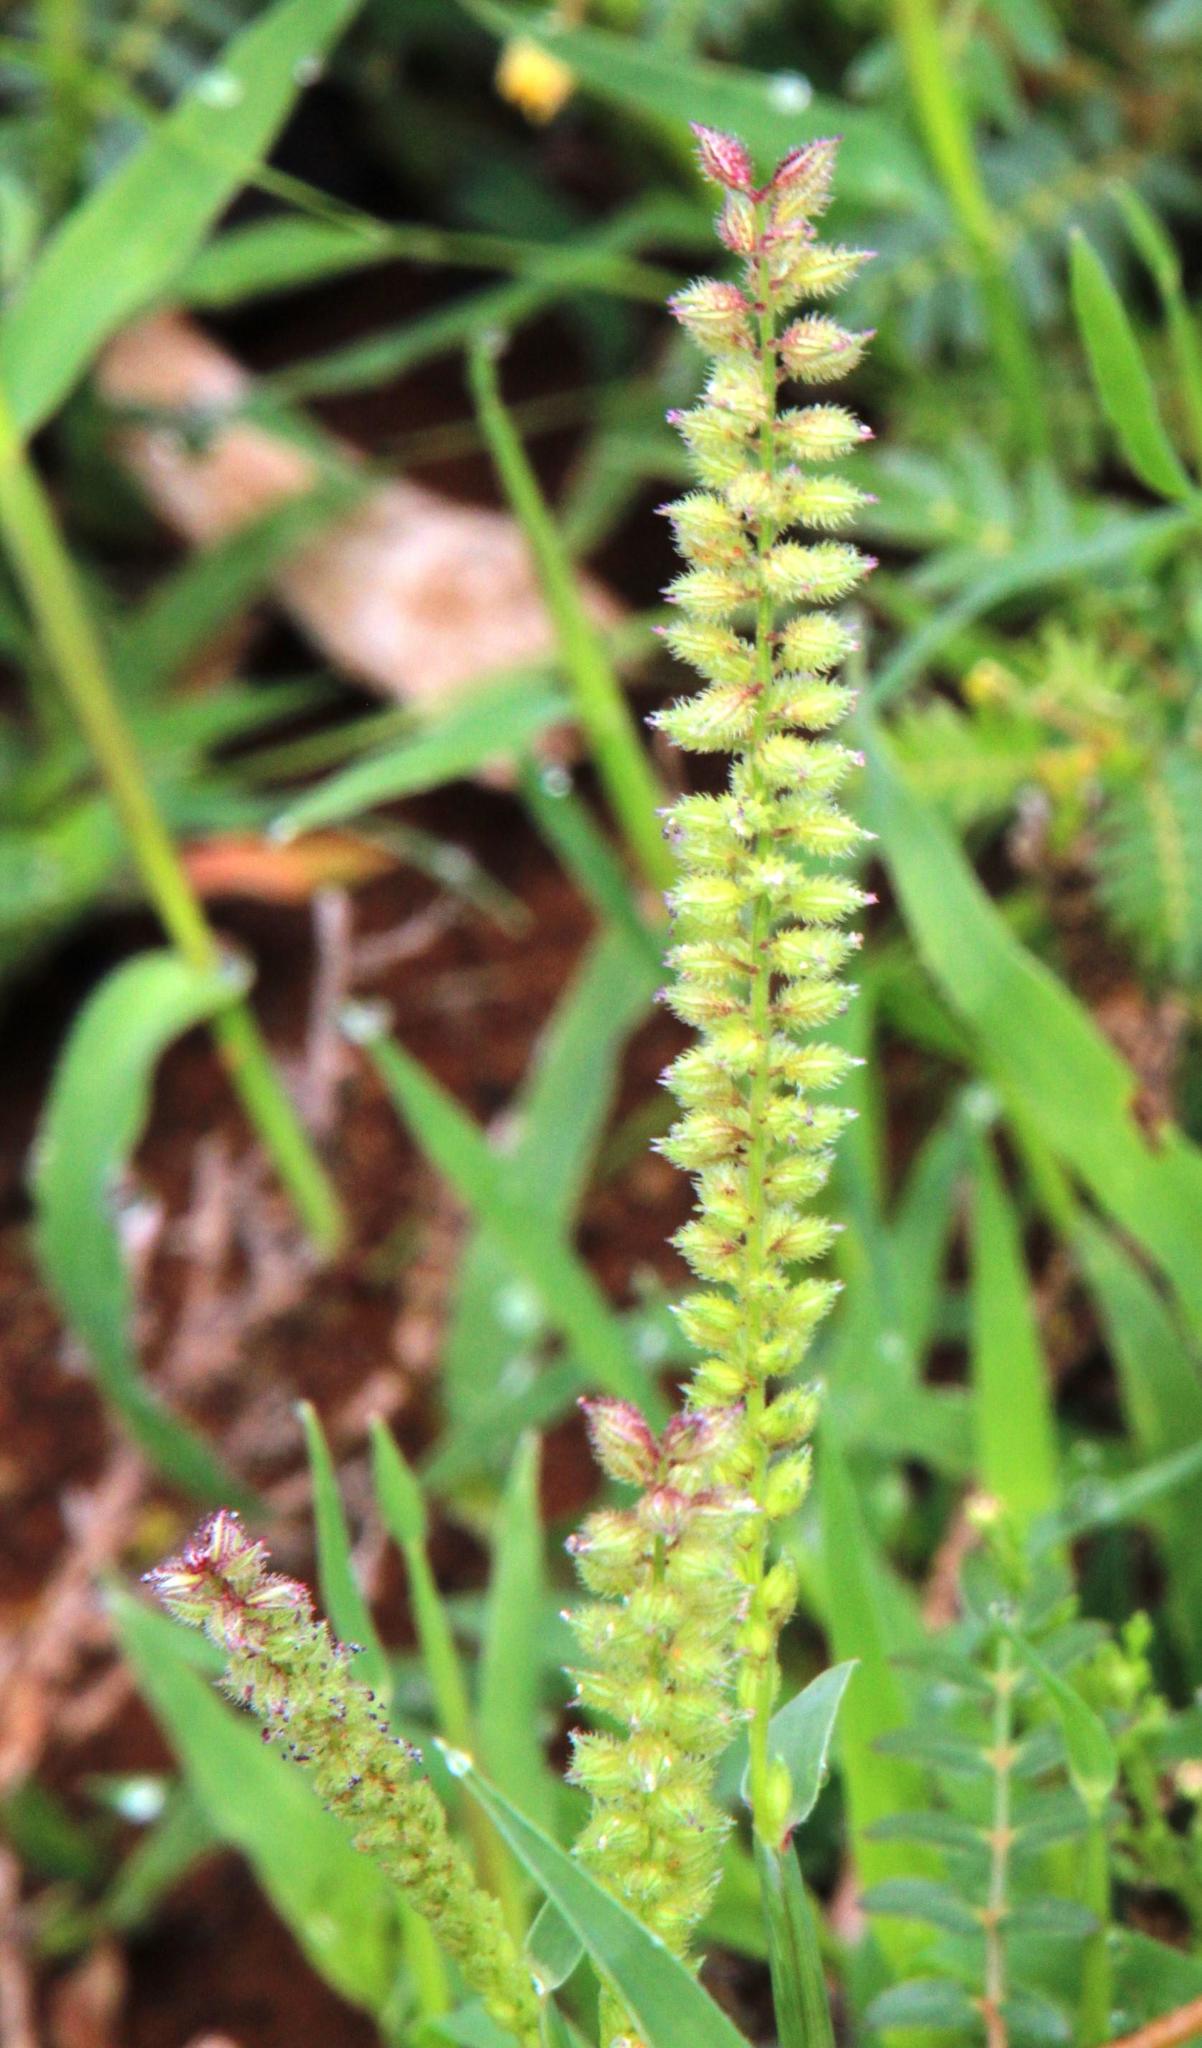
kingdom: Plantae
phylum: Tracheophyta
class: Liliopsida
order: Poales
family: Poaceae
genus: Tragus
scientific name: Tragus berteronianus
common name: African bur-grass
